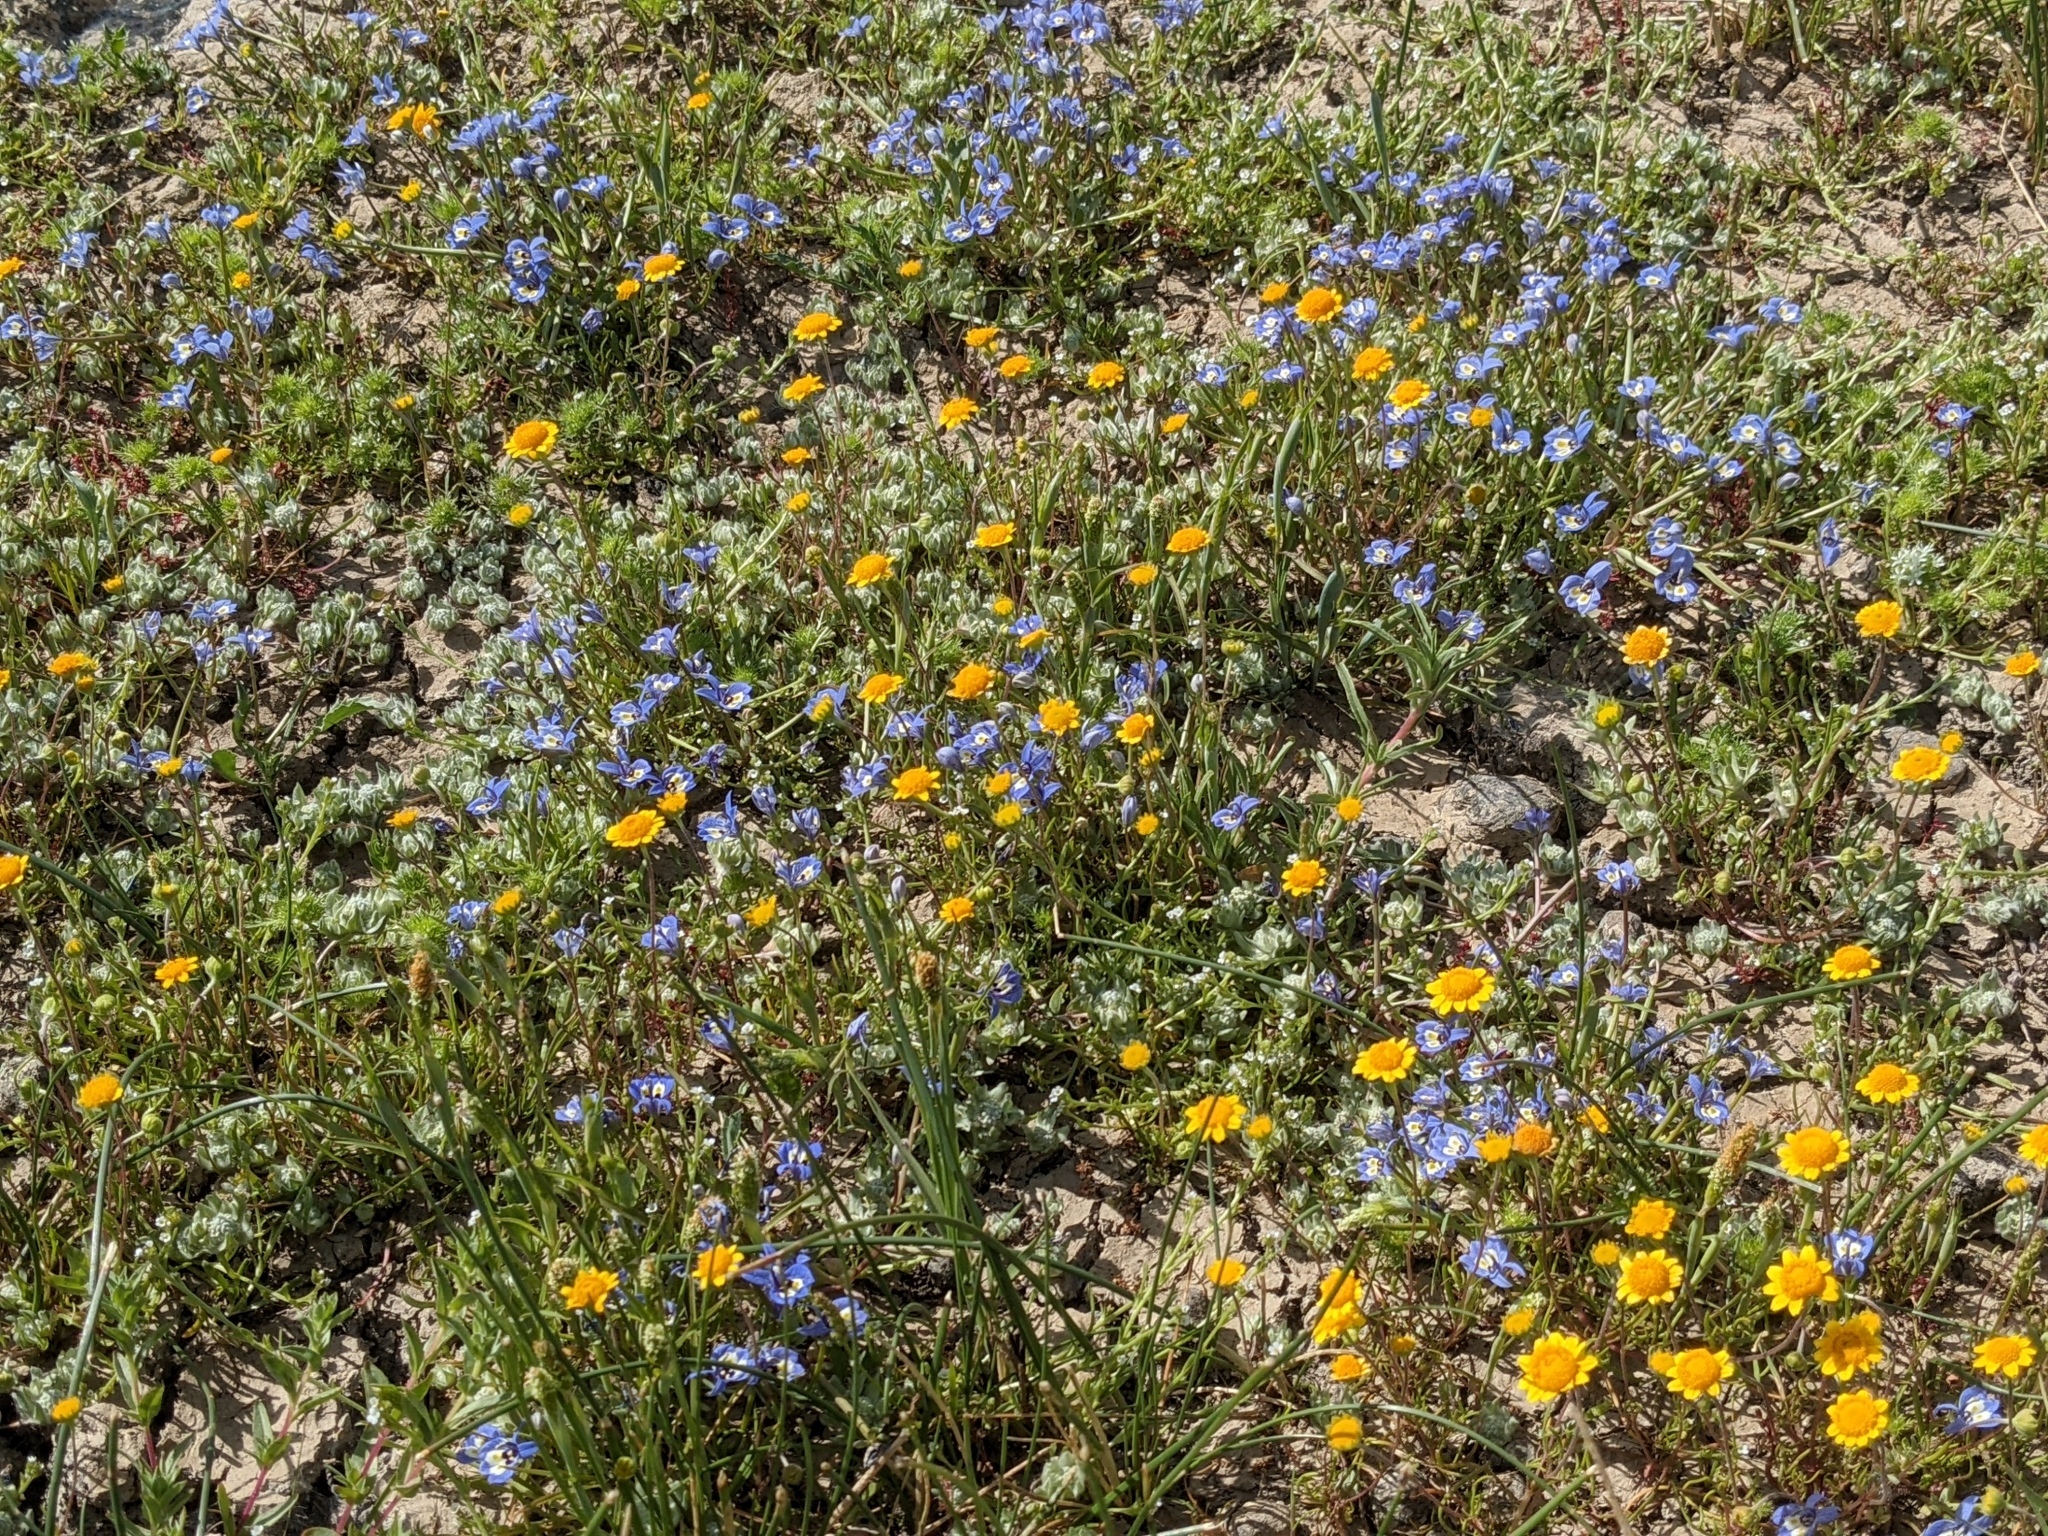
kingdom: Plantae
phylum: Tracheophyta
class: Magnoliopsida
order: Asterales
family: Campanulaceae
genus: Downingia
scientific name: Downingia insignis
